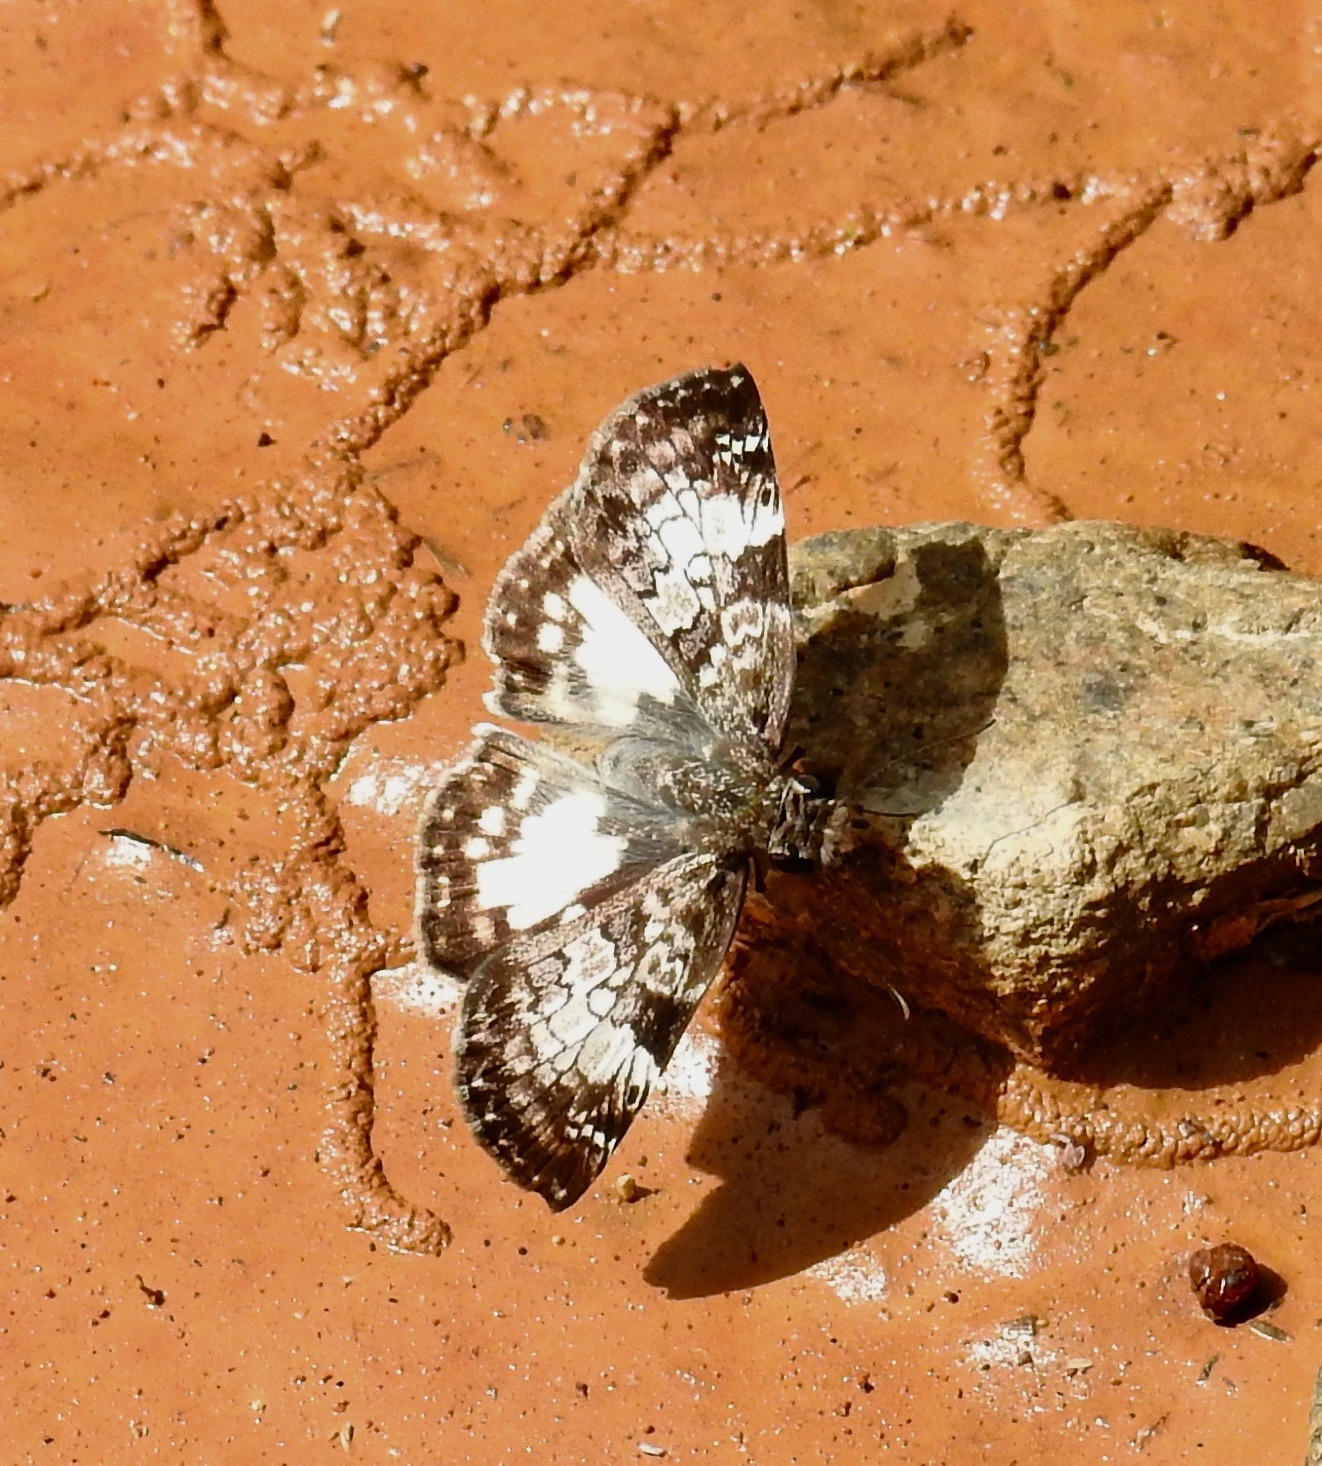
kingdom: Animalia
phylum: Arthropoda
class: Insecta
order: Lepidoptera
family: Hesperiidae
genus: Chiomara
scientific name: Chiomara asychis
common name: White-patterned skipper
